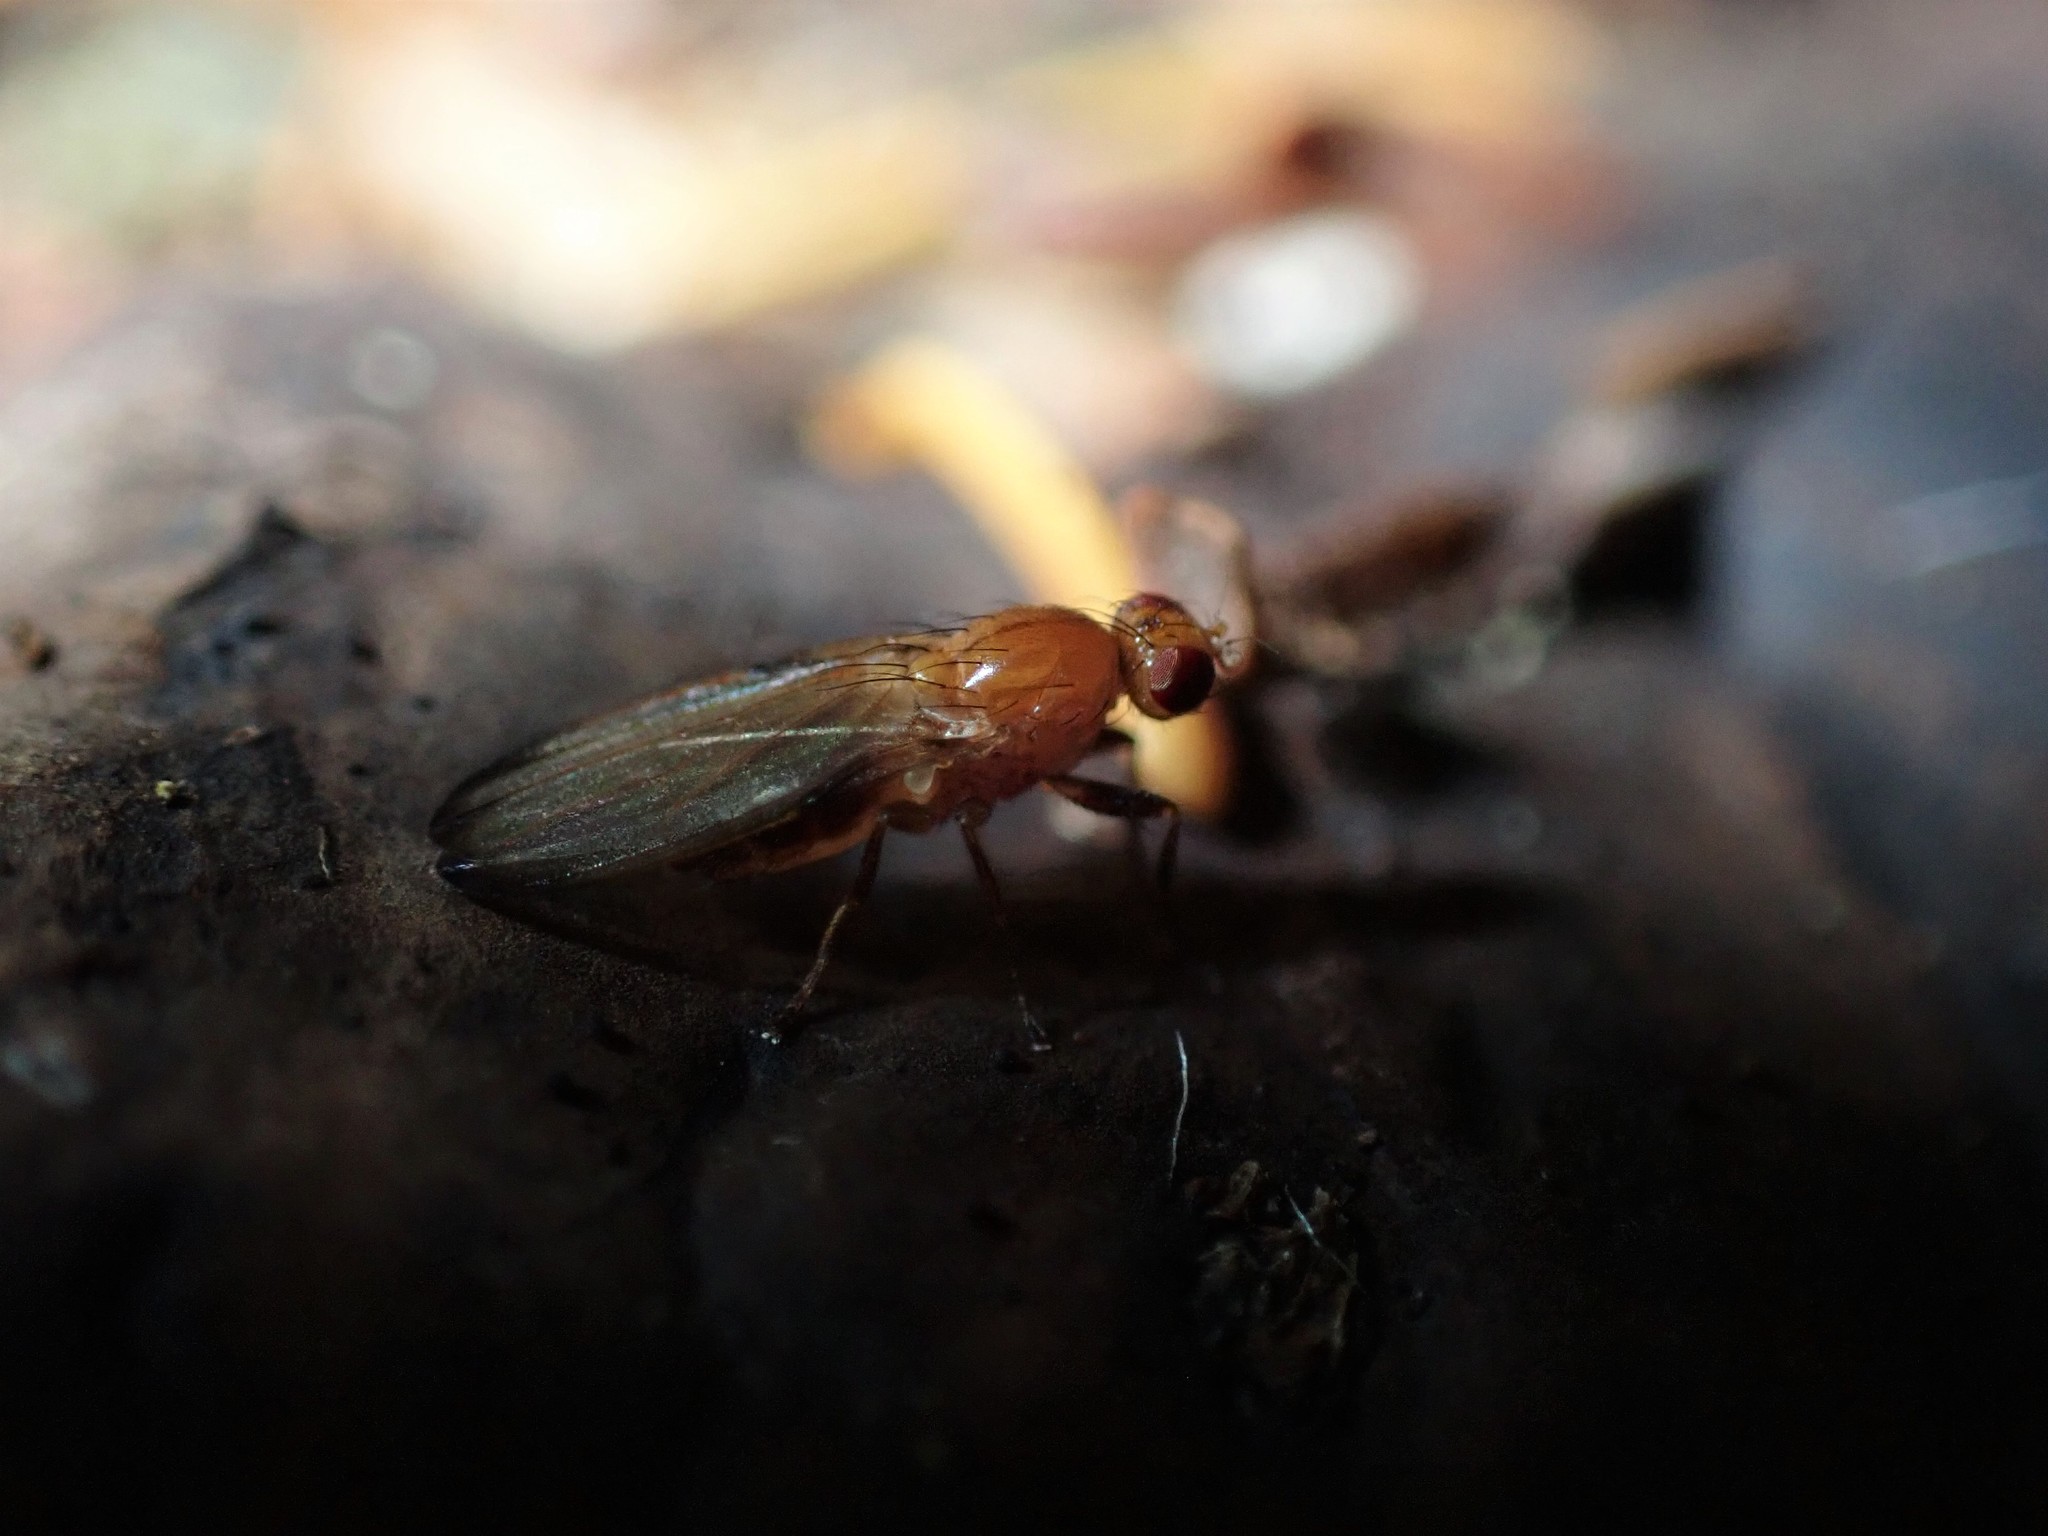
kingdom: Animalia
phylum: Arthropoda
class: Insecta
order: Diptera
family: Piophilidae
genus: Mycetaulus
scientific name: Mycetaulus polypori
